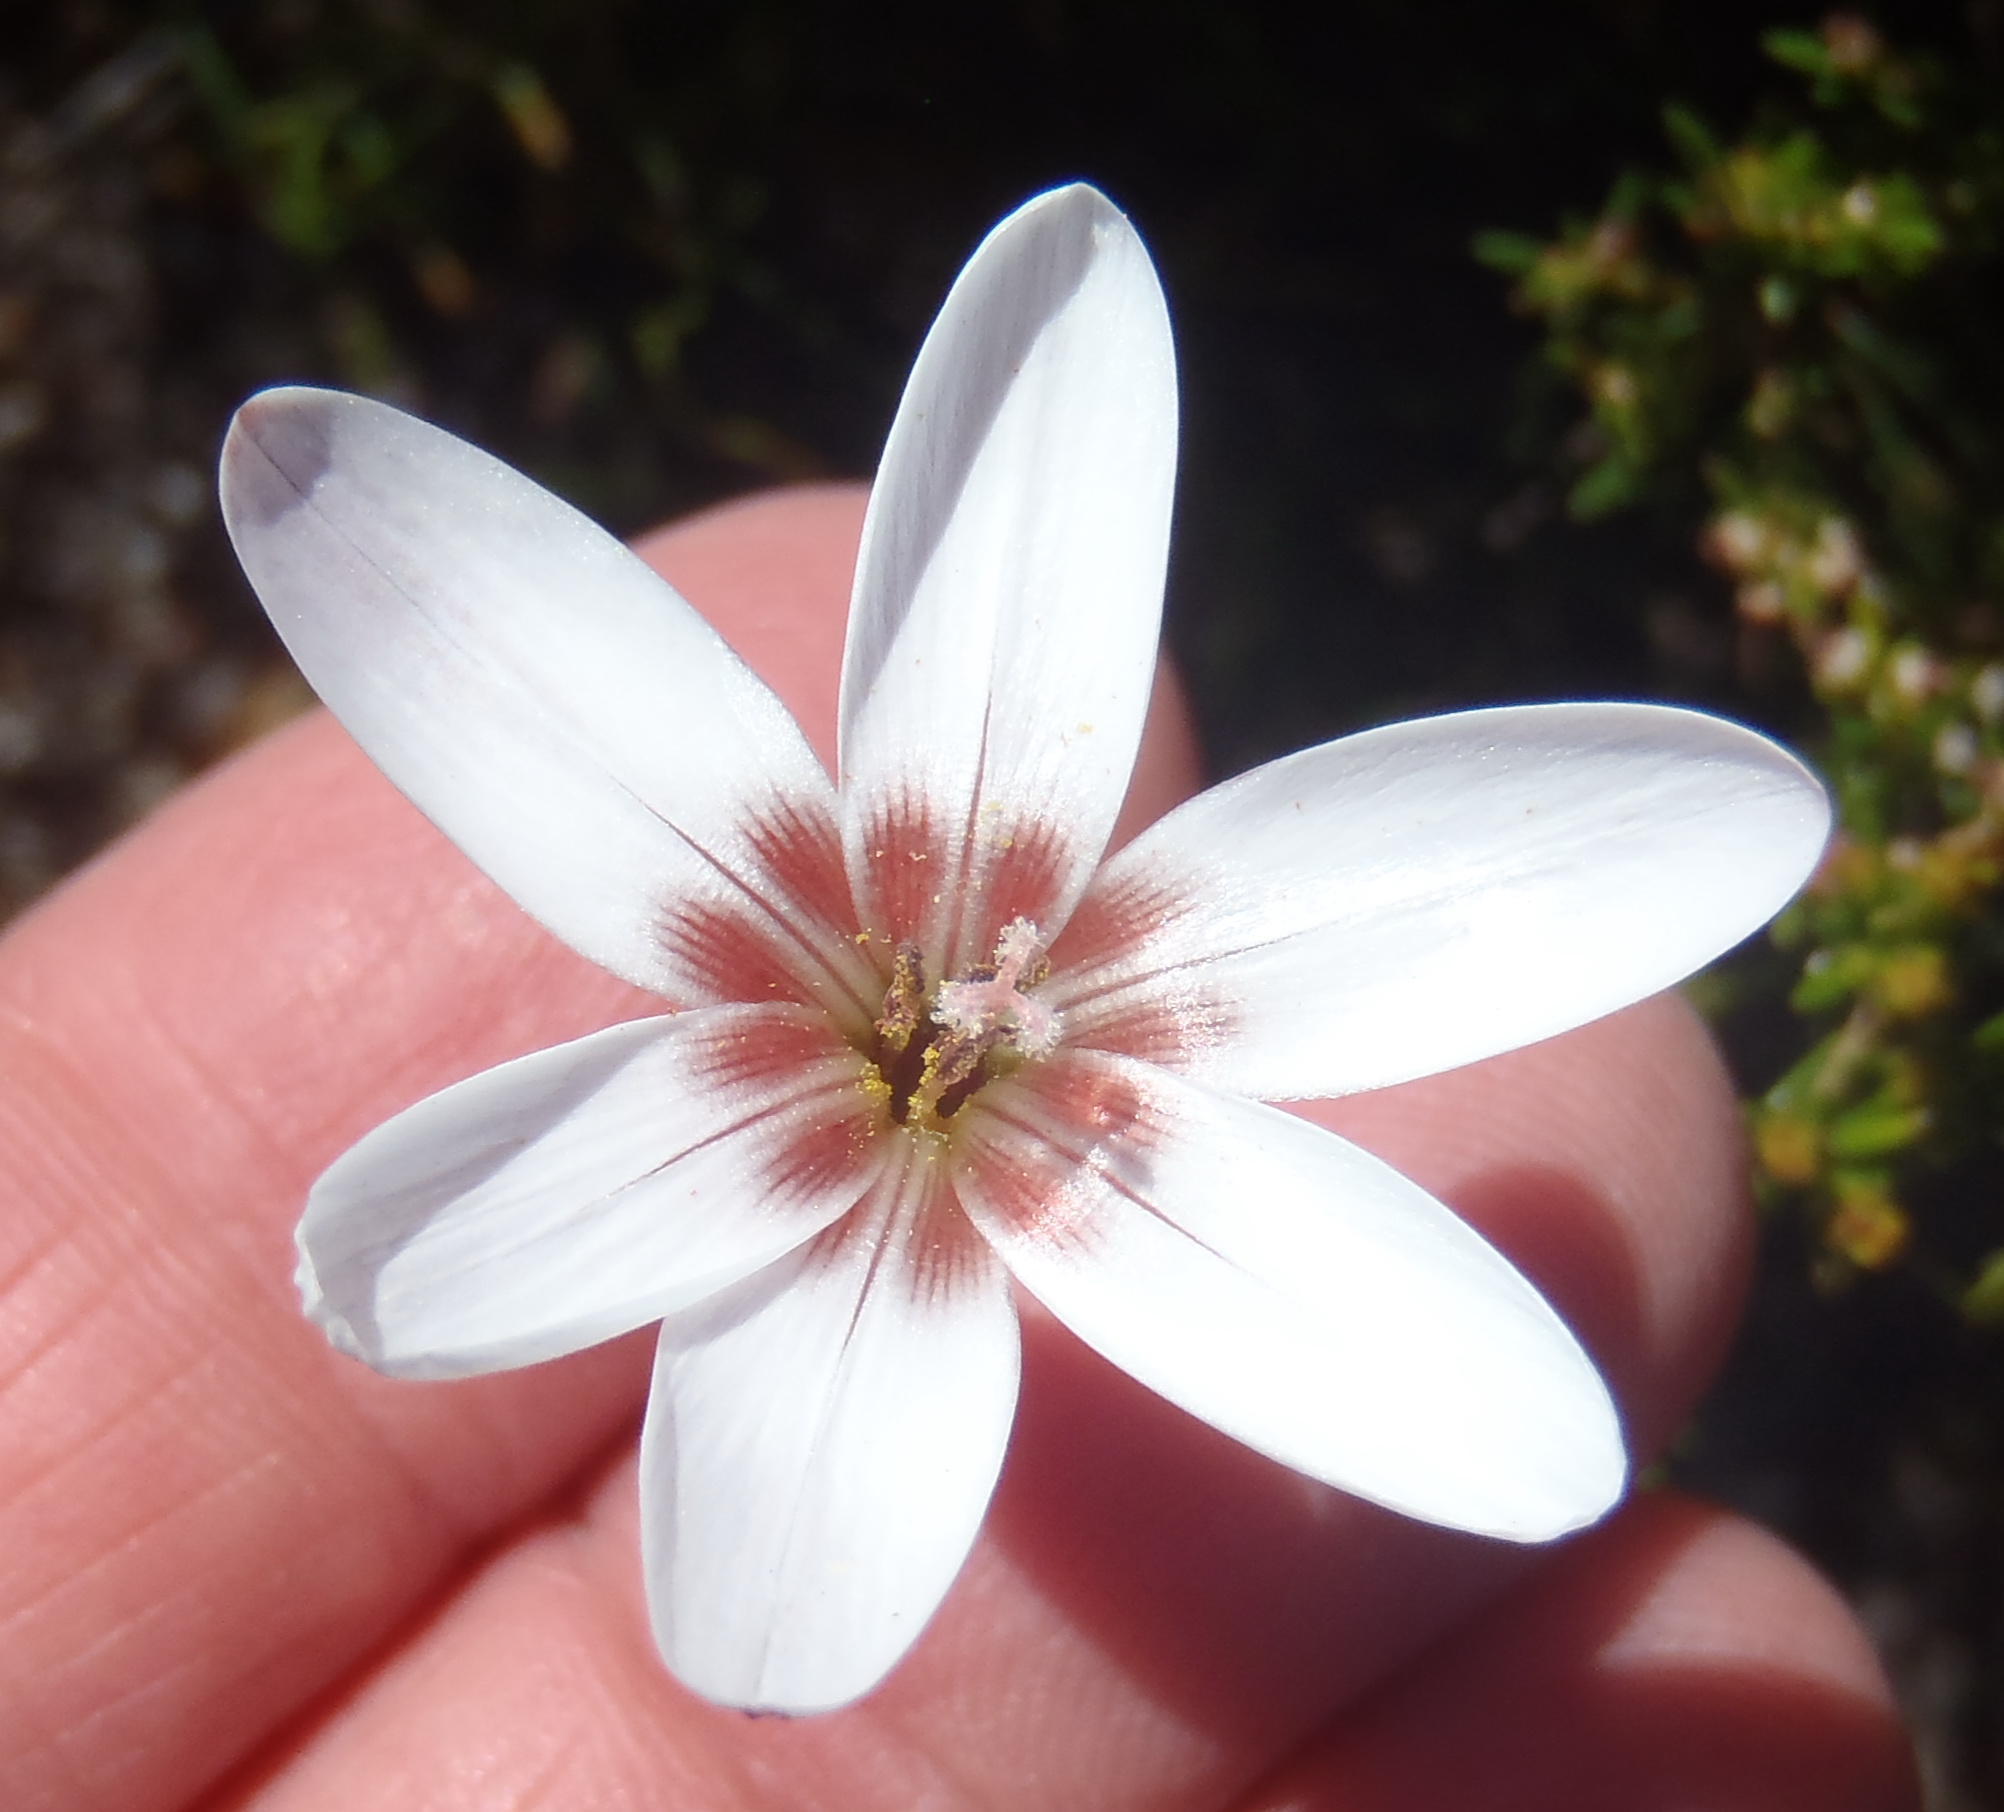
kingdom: Plantae
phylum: Tracheophyta
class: Liliopsida
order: Asparagales
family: Iridaceae
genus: Geissorhiza
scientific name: Geissorhiza ovata
